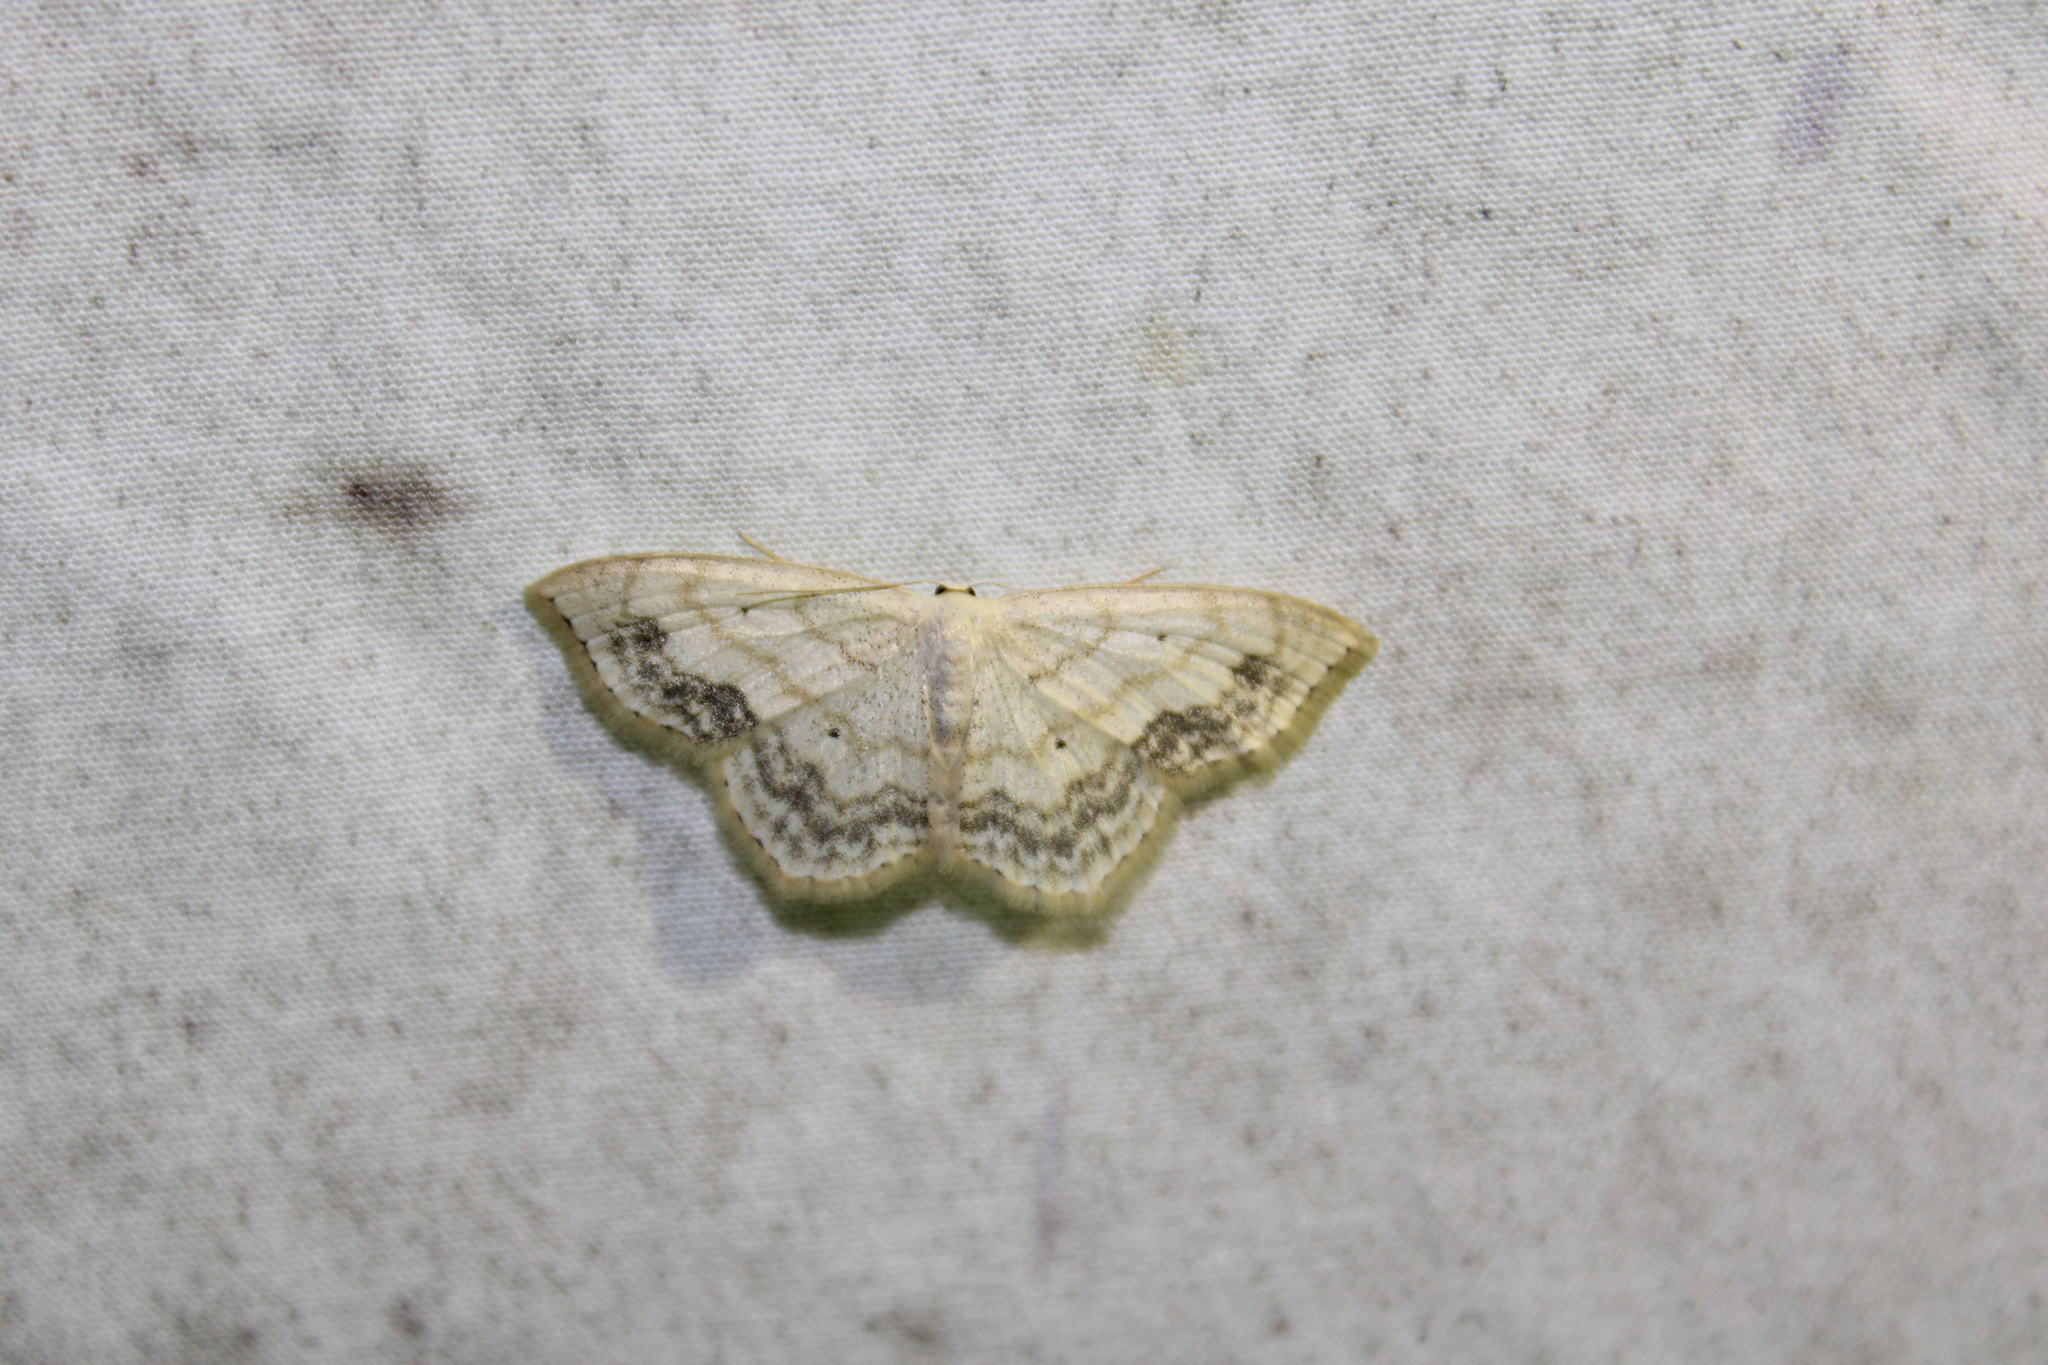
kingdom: Animalia
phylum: Arthropoda
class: Insecta
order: Lepidoptera
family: Geometridae
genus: Scopula
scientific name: Scopula limboundata
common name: Large lace border
